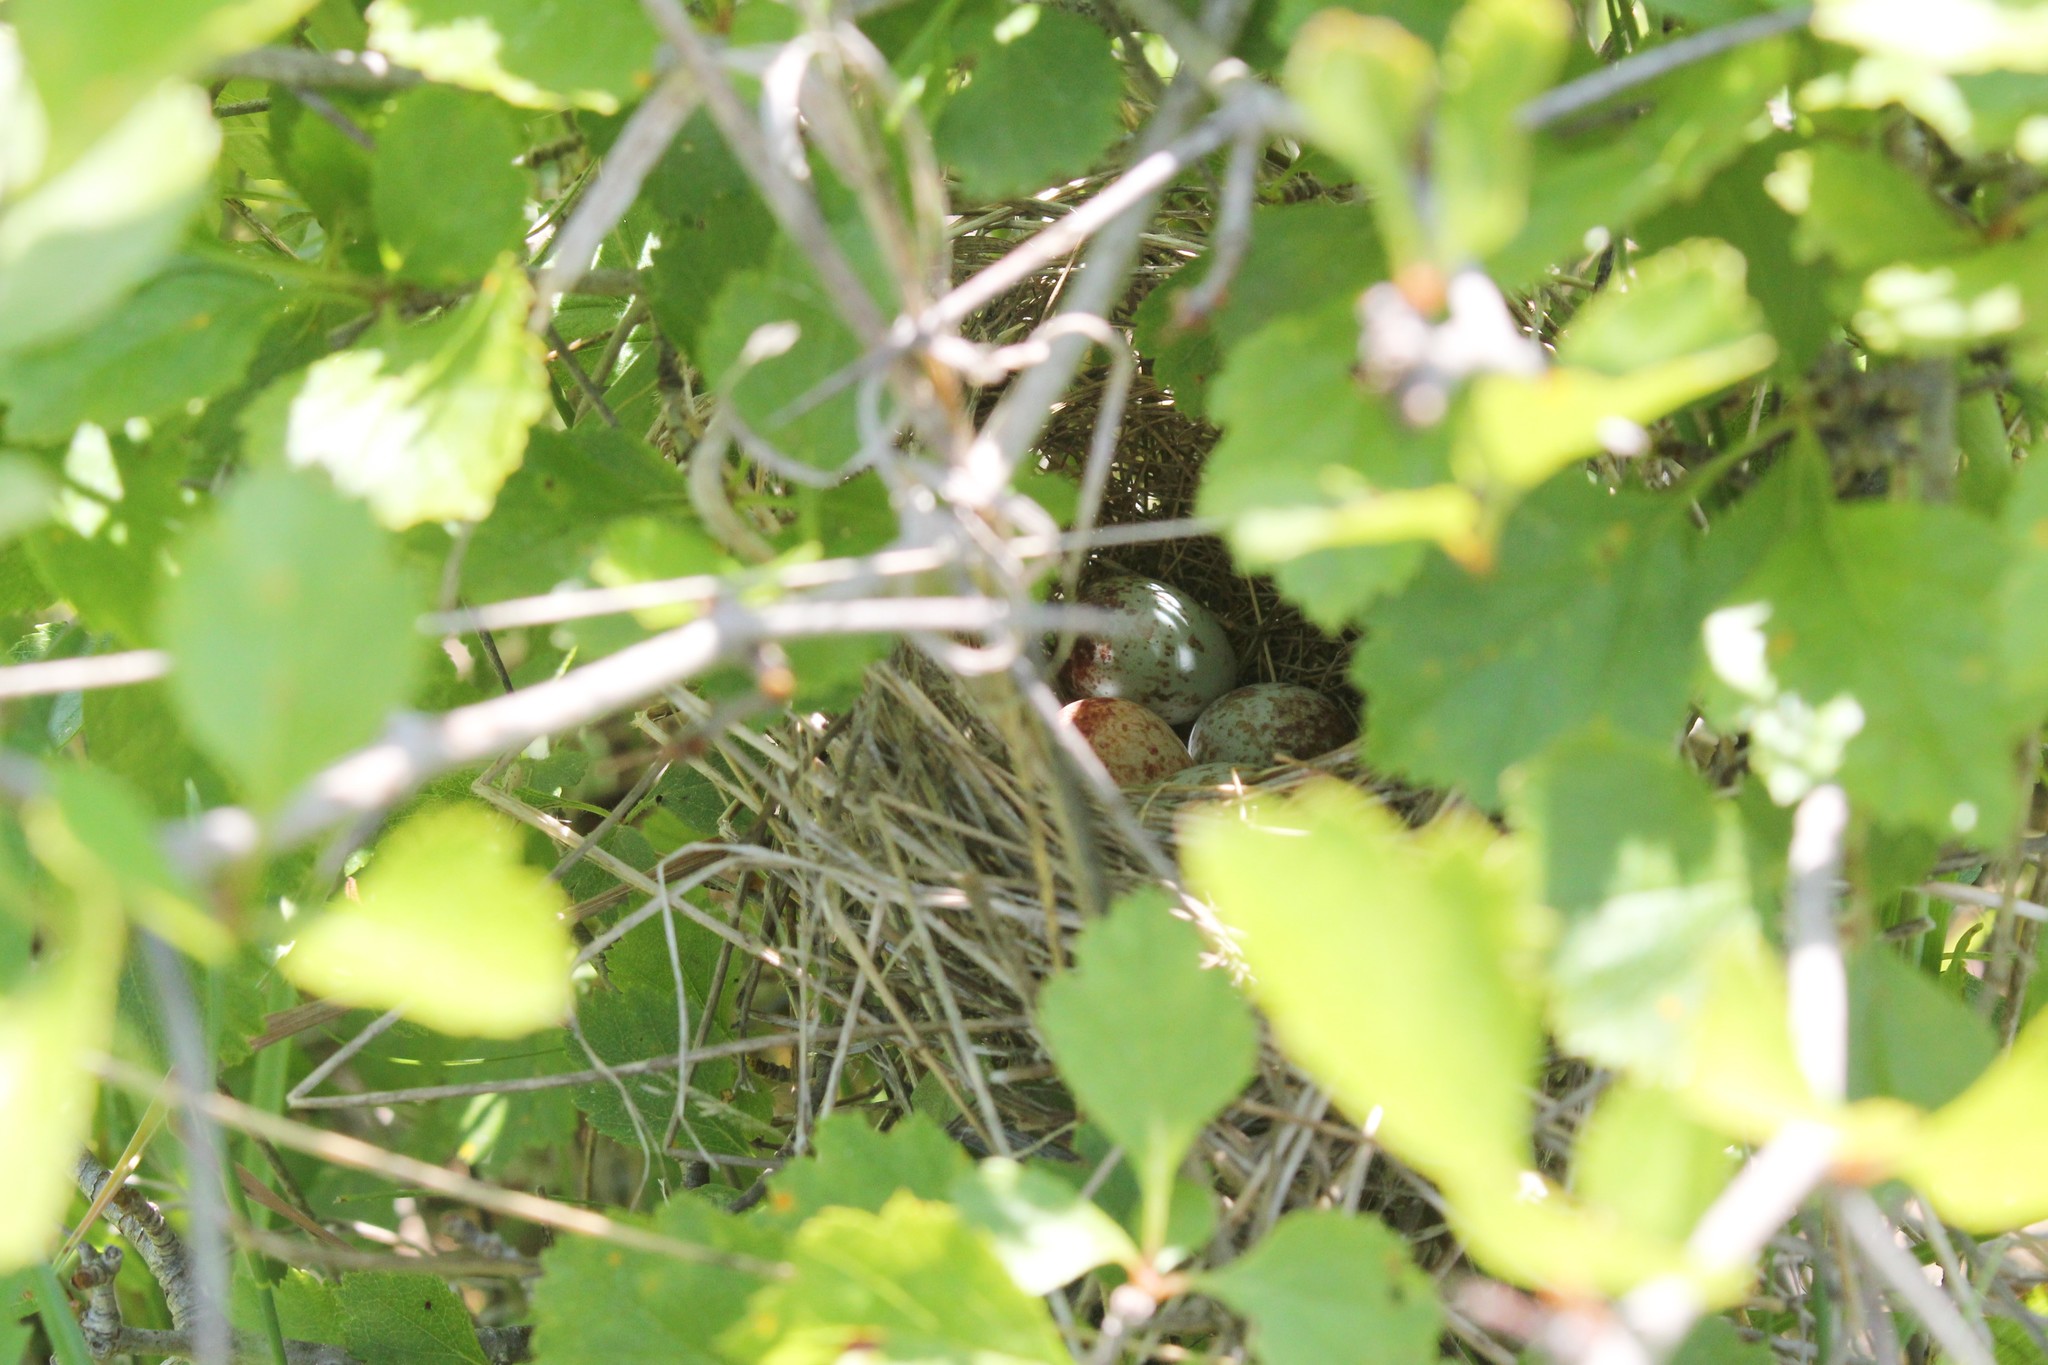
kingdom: Animalia
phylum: Chordata
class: Aves
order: Passeriformes
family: Passerellidae
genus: Spizella
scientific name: Spizella pusilla
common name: Field sparrow
